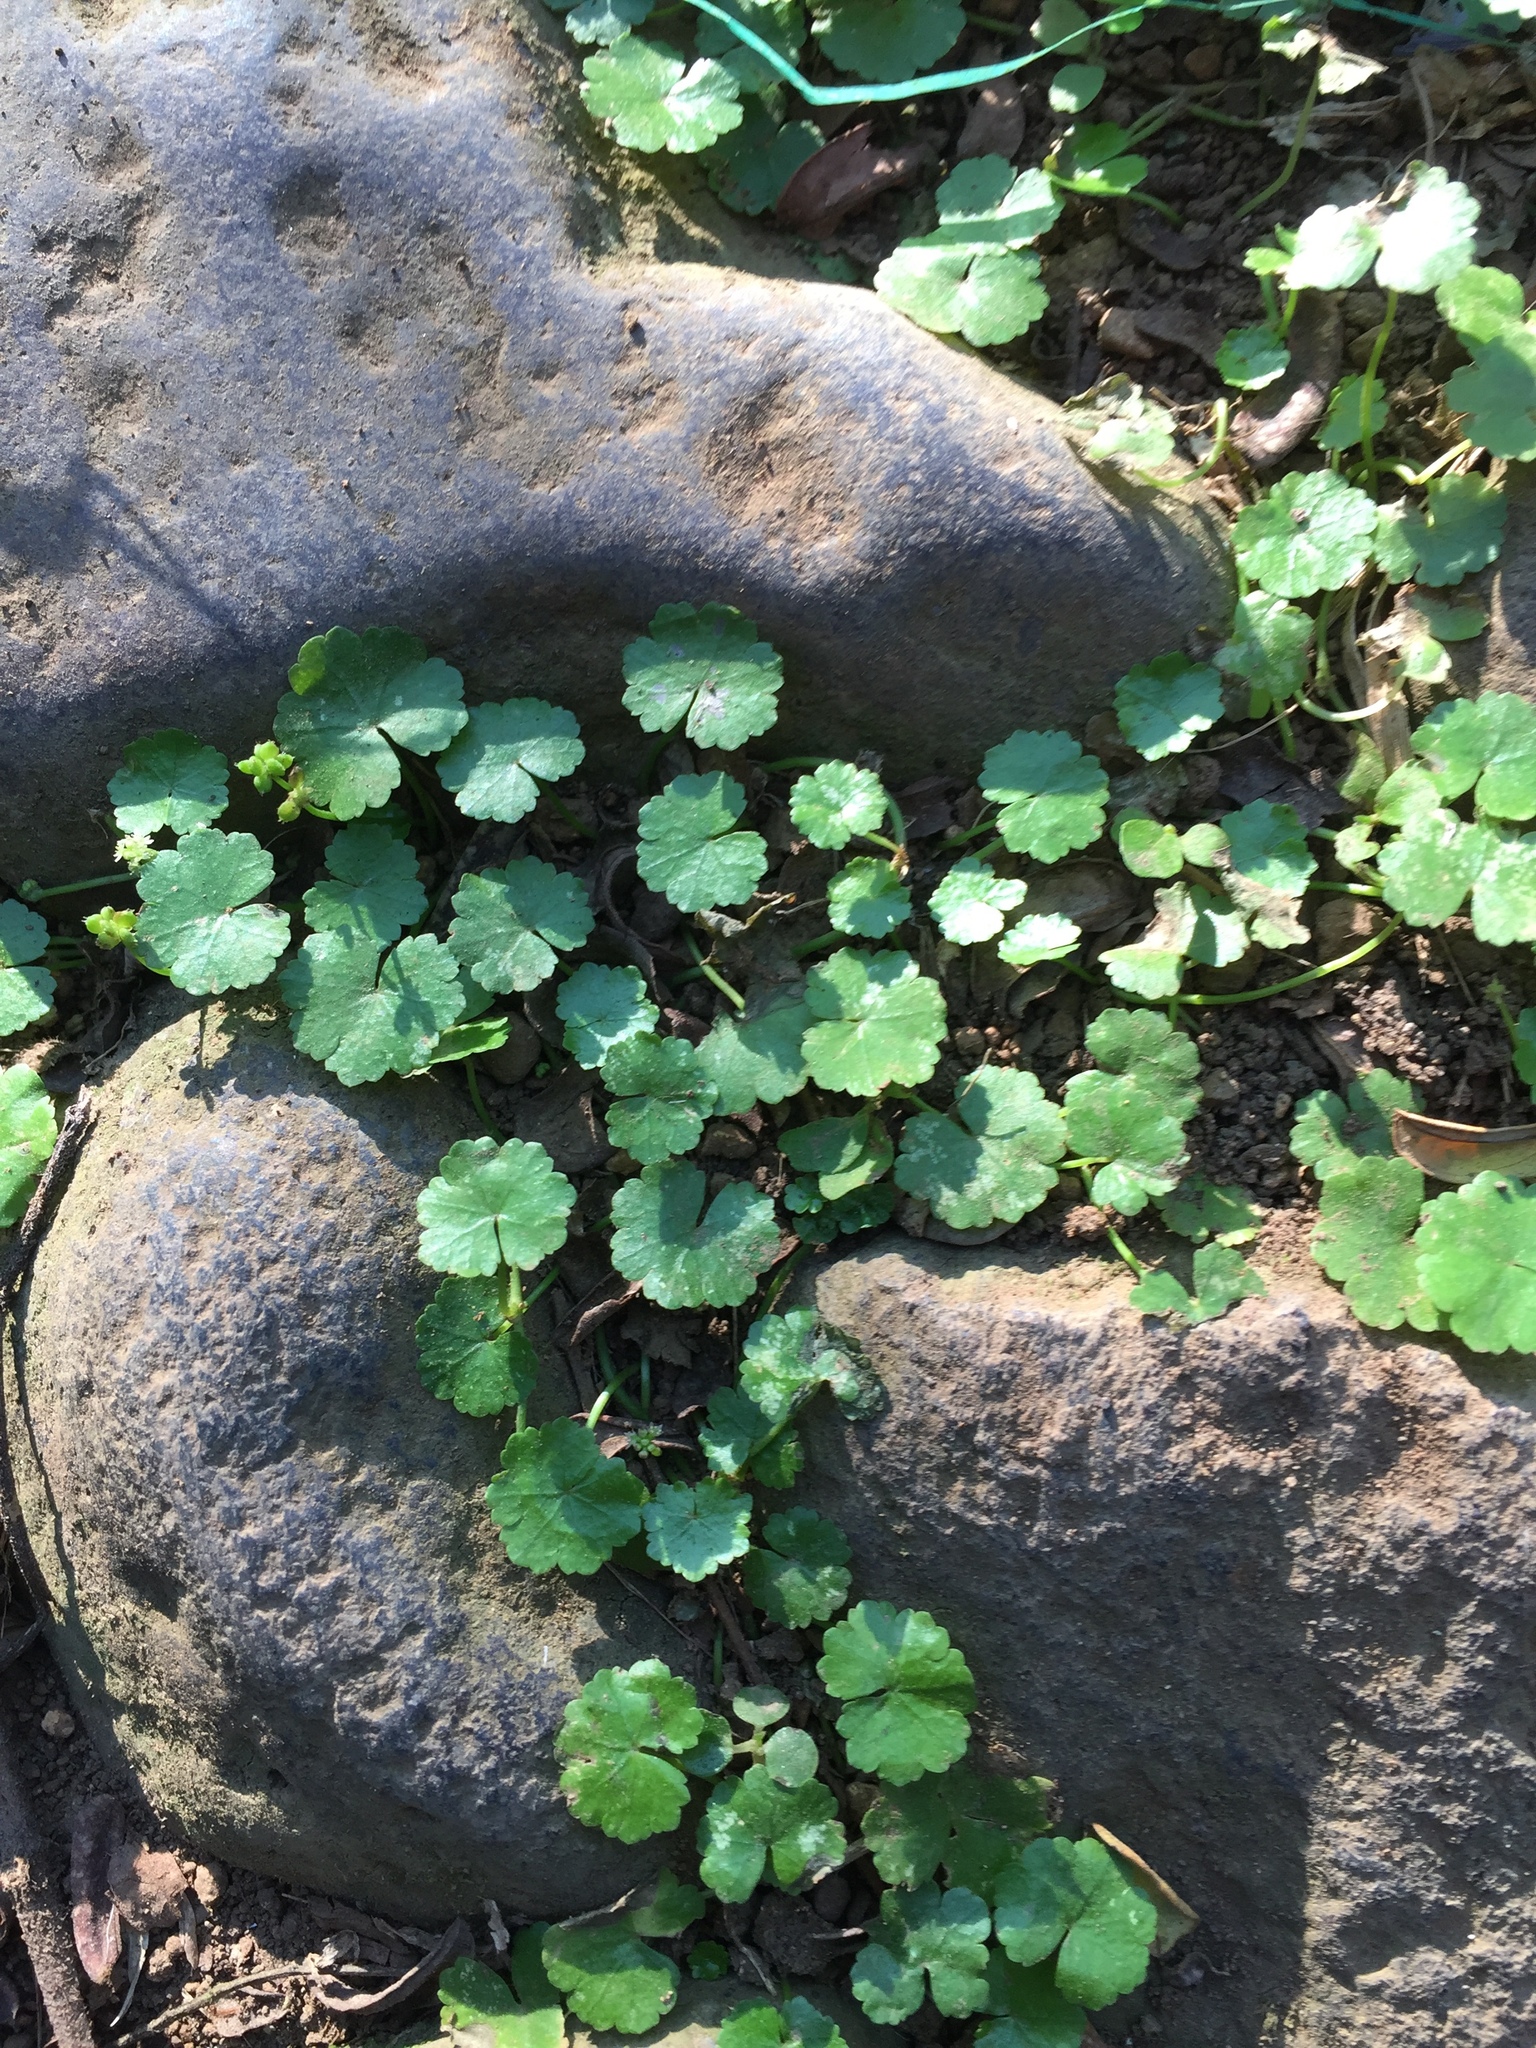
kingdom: Plantae
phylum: Tracheophyta
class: Magnoliopsida
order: Apiales
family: Araliaceae
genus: Hydrocotyle
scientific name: Hydrocotyle sibthorpioides
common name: Lawn marshpennywort
